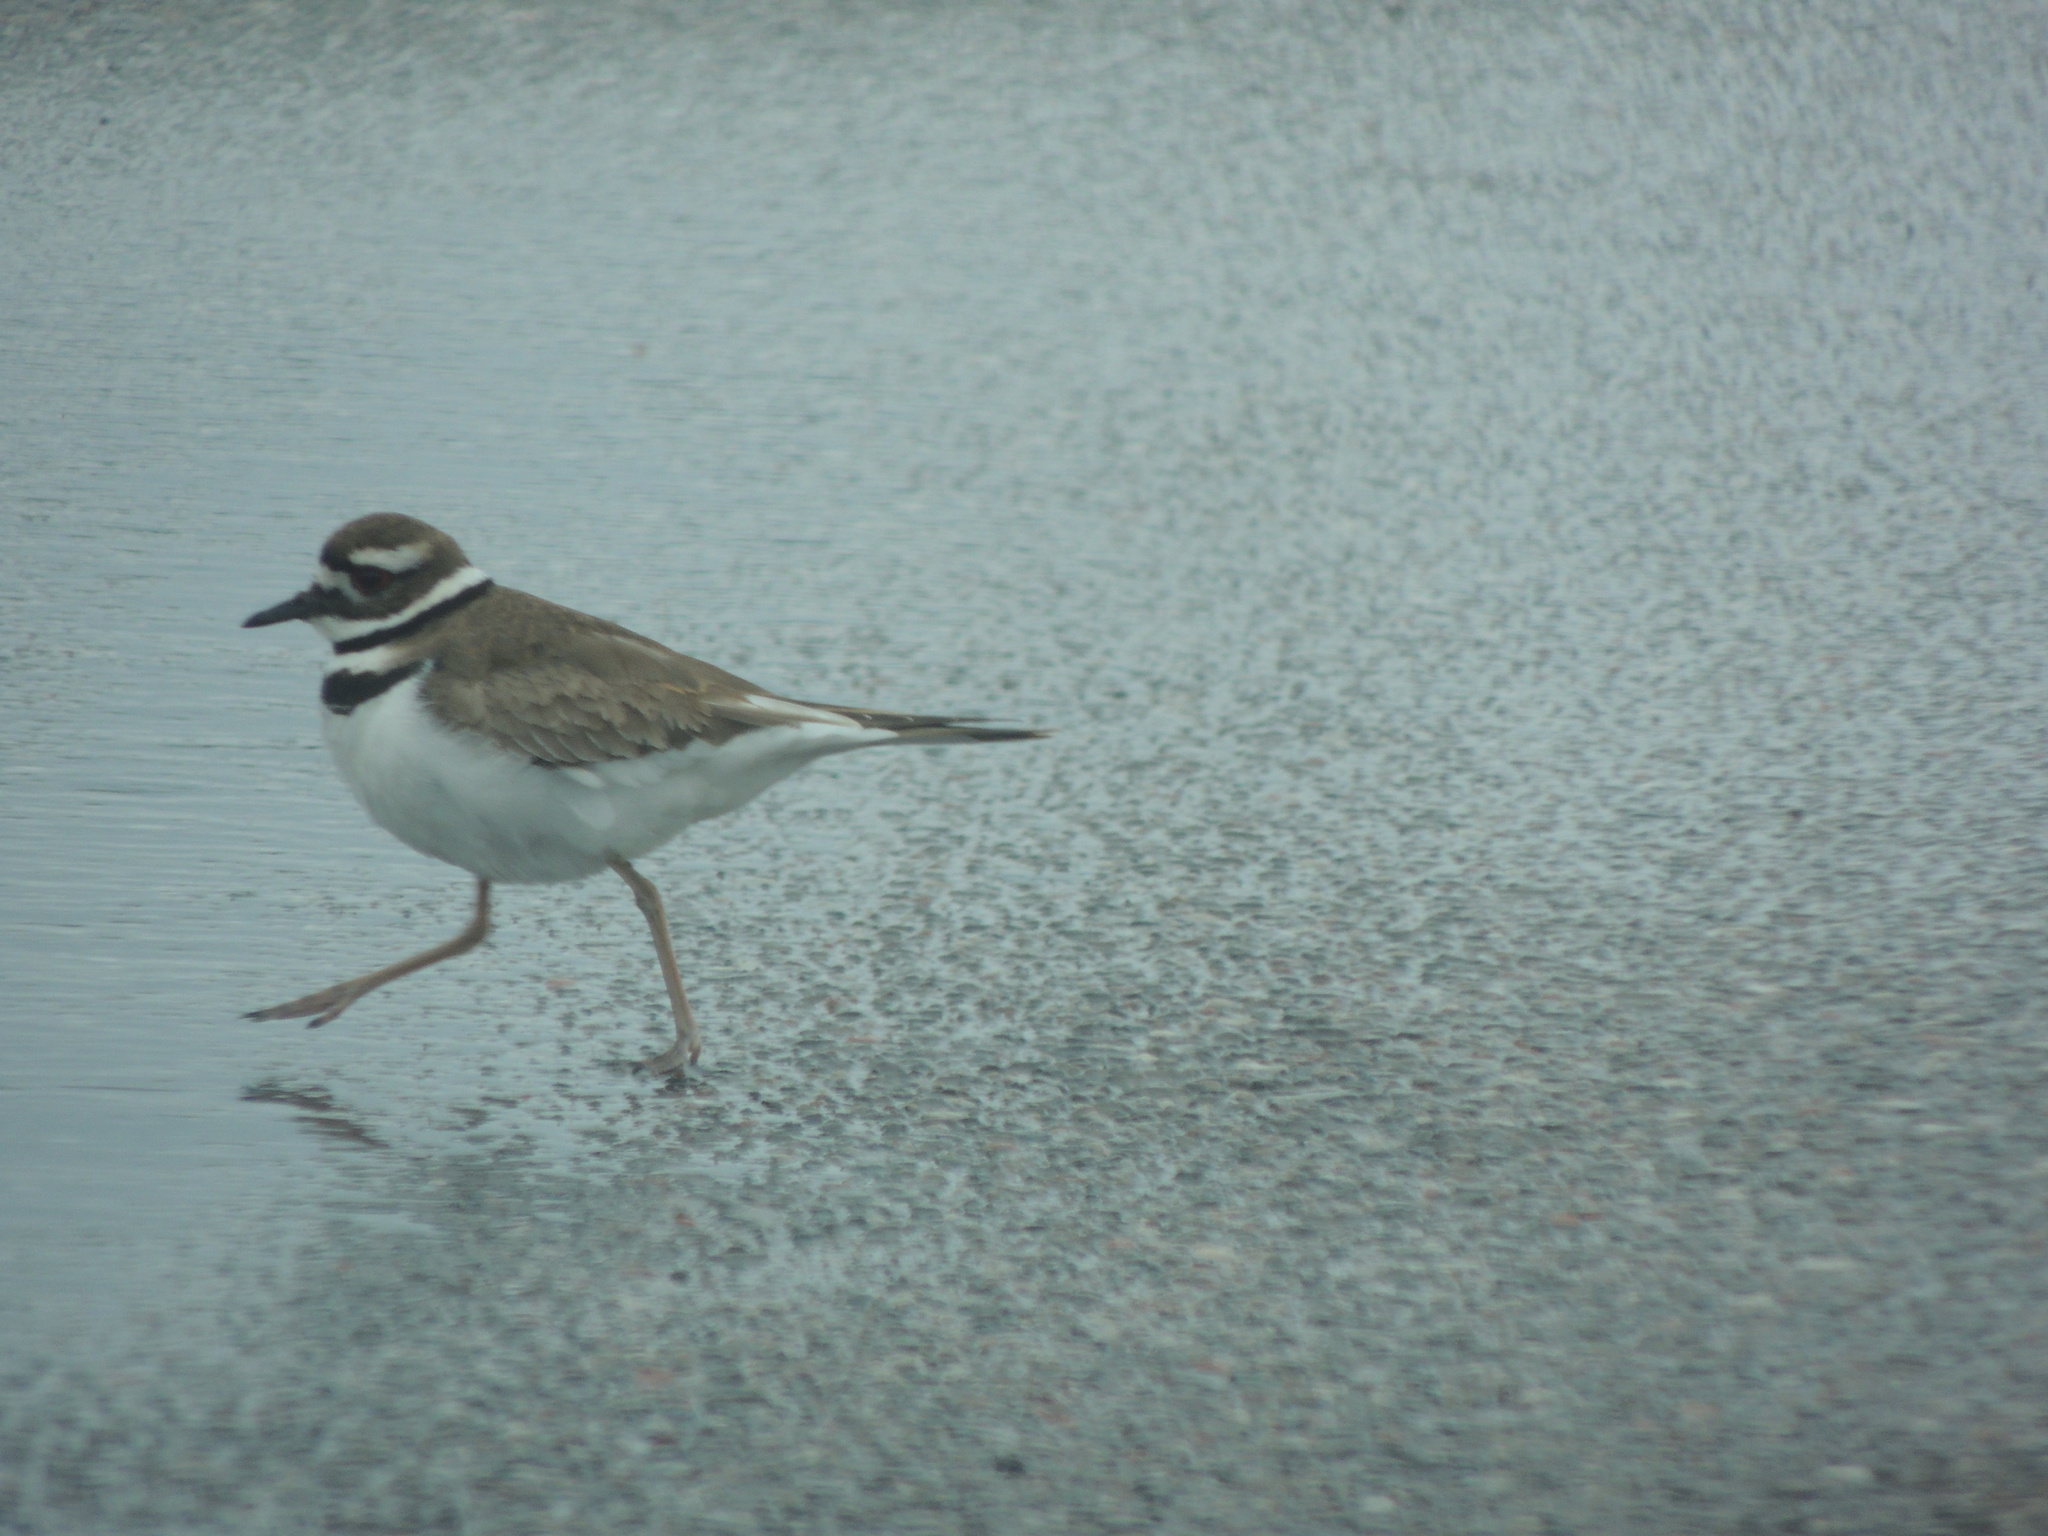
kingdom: Animalia
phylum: Chordata
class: Aves
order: Charadriiformes
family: Charadriidae
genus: Charadrius
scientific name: Charadrius vociferus
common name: Killdeer
